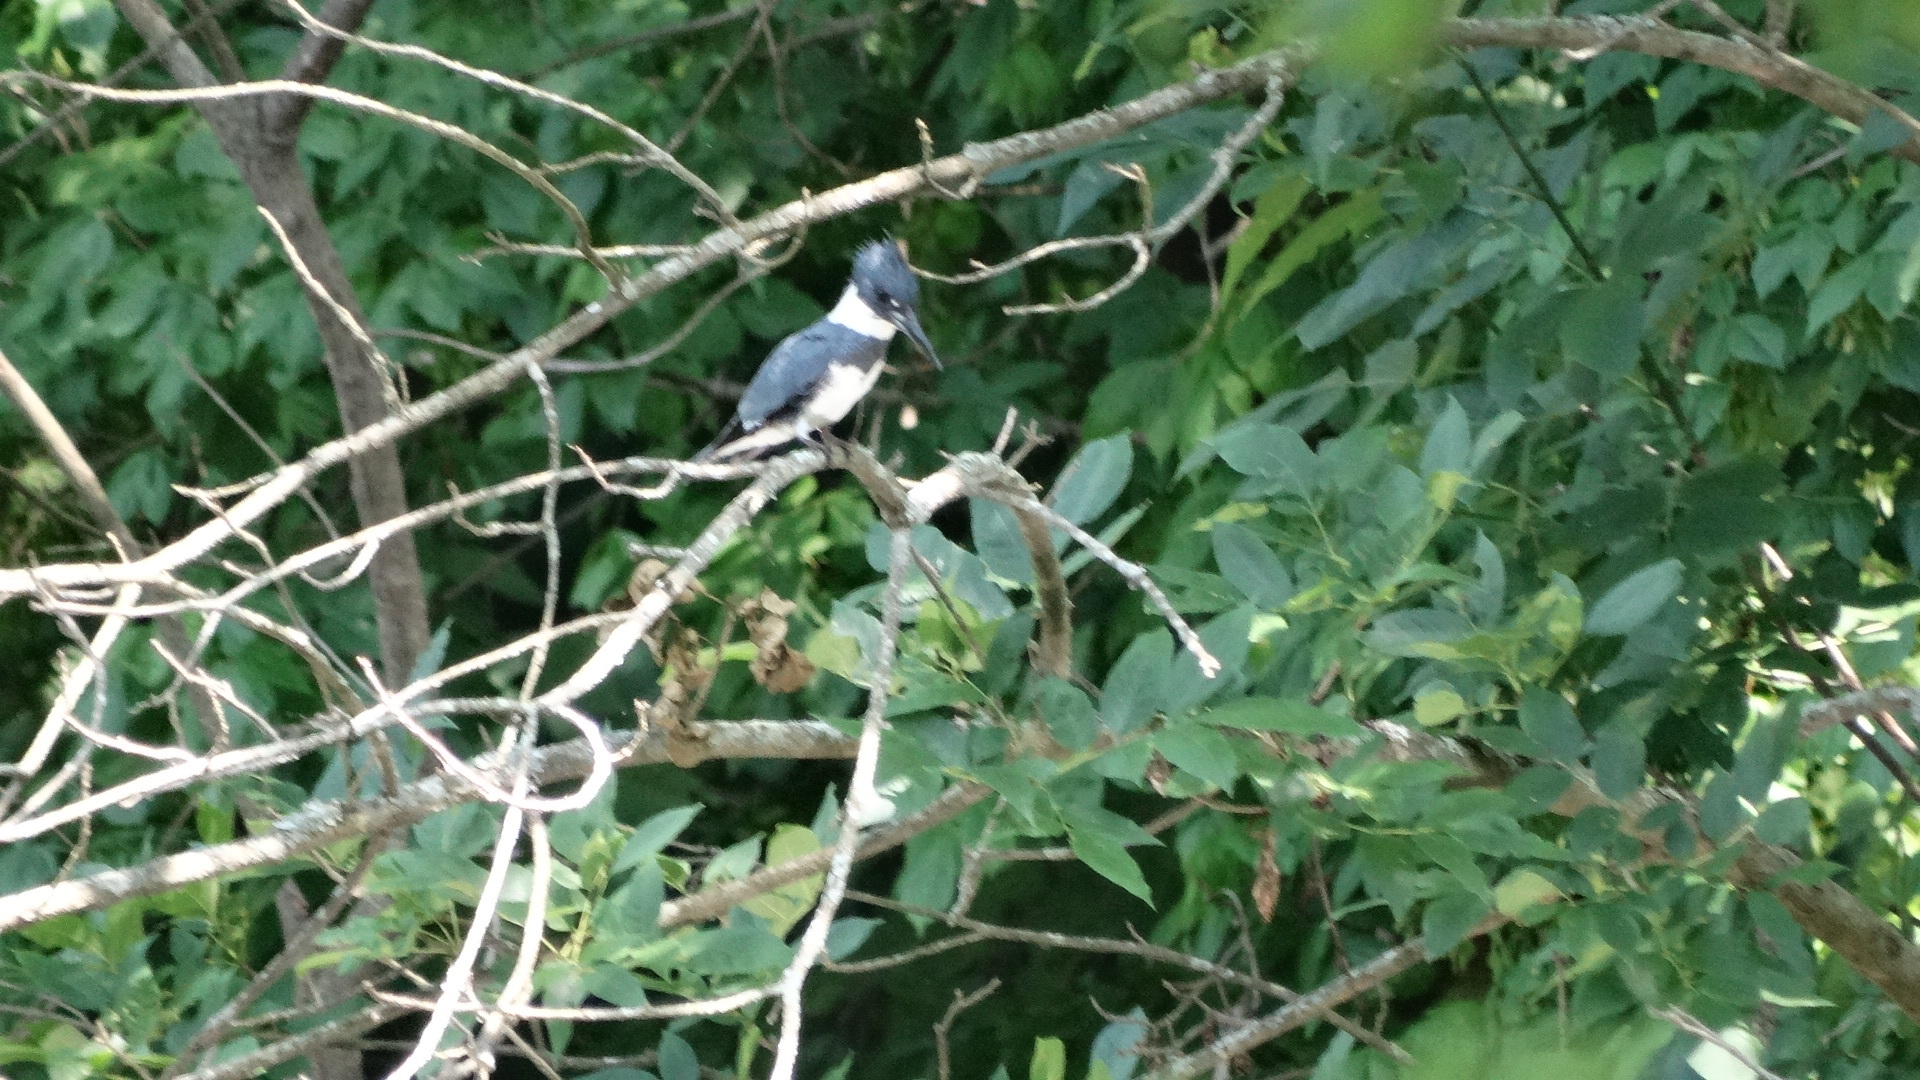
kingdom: Animalia
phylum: Chordata
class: Aves
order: Coraciiformes
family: Alcedinidae
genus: Megaceryle
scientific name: Megaceryle alcyon
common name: Belted kingfisher
